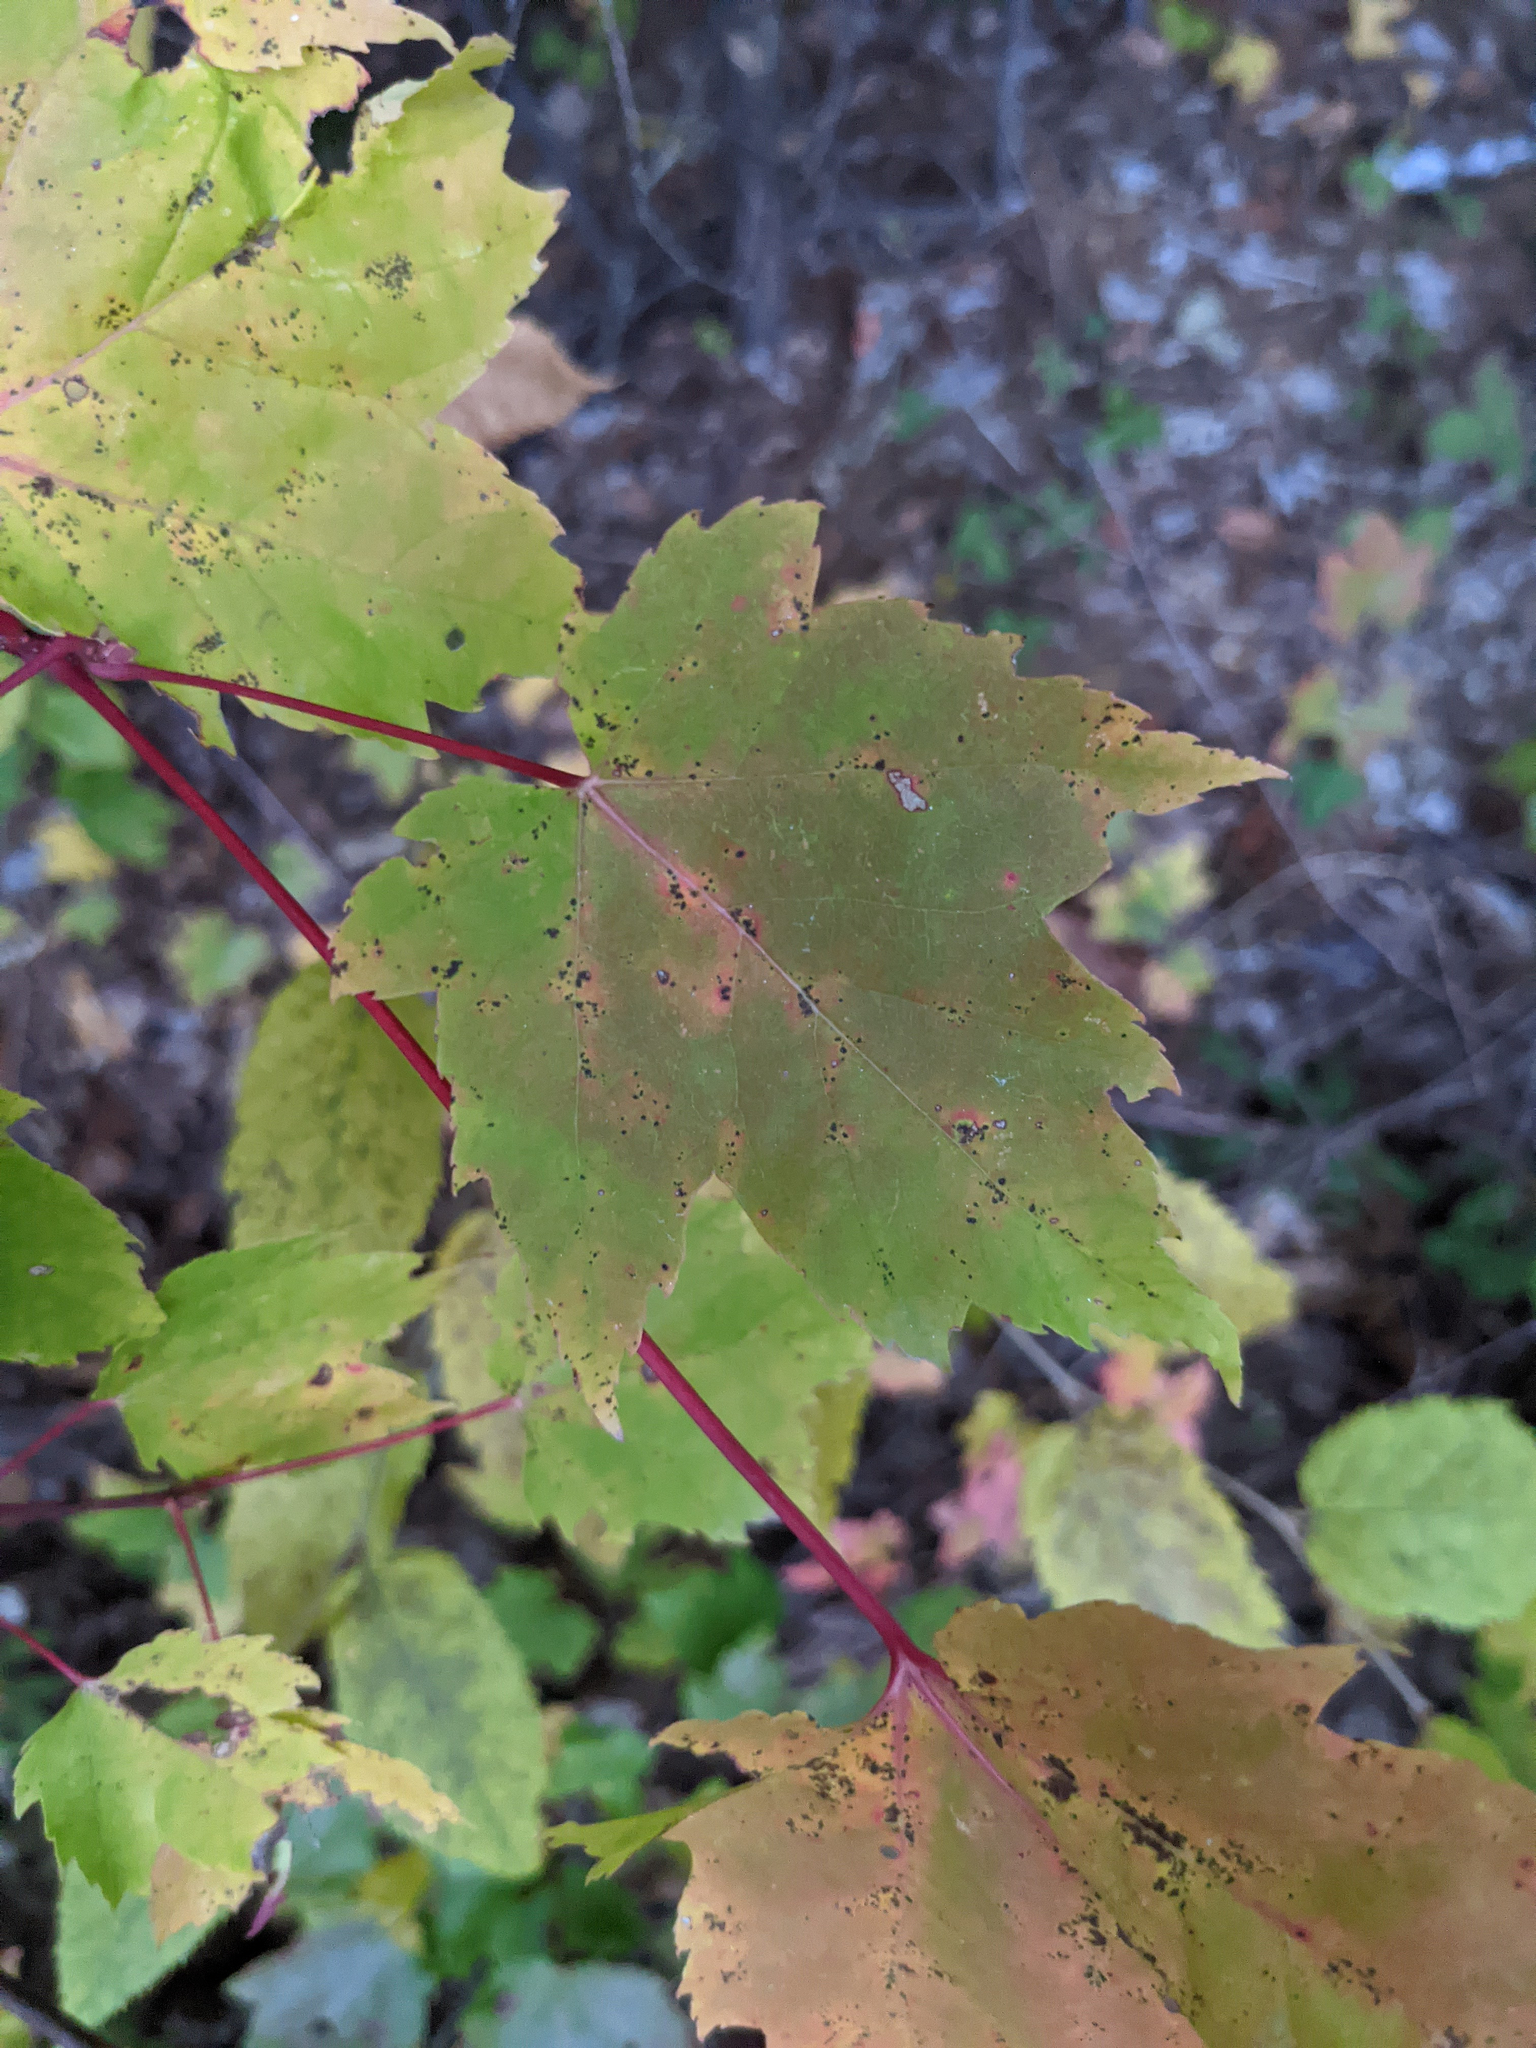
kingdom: Plantae
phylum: Tracheophyta
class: Magnoliopsida
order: Sapindales
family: Sapindaceae
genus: Acer
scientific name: Acer rubrum
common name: Red maple
